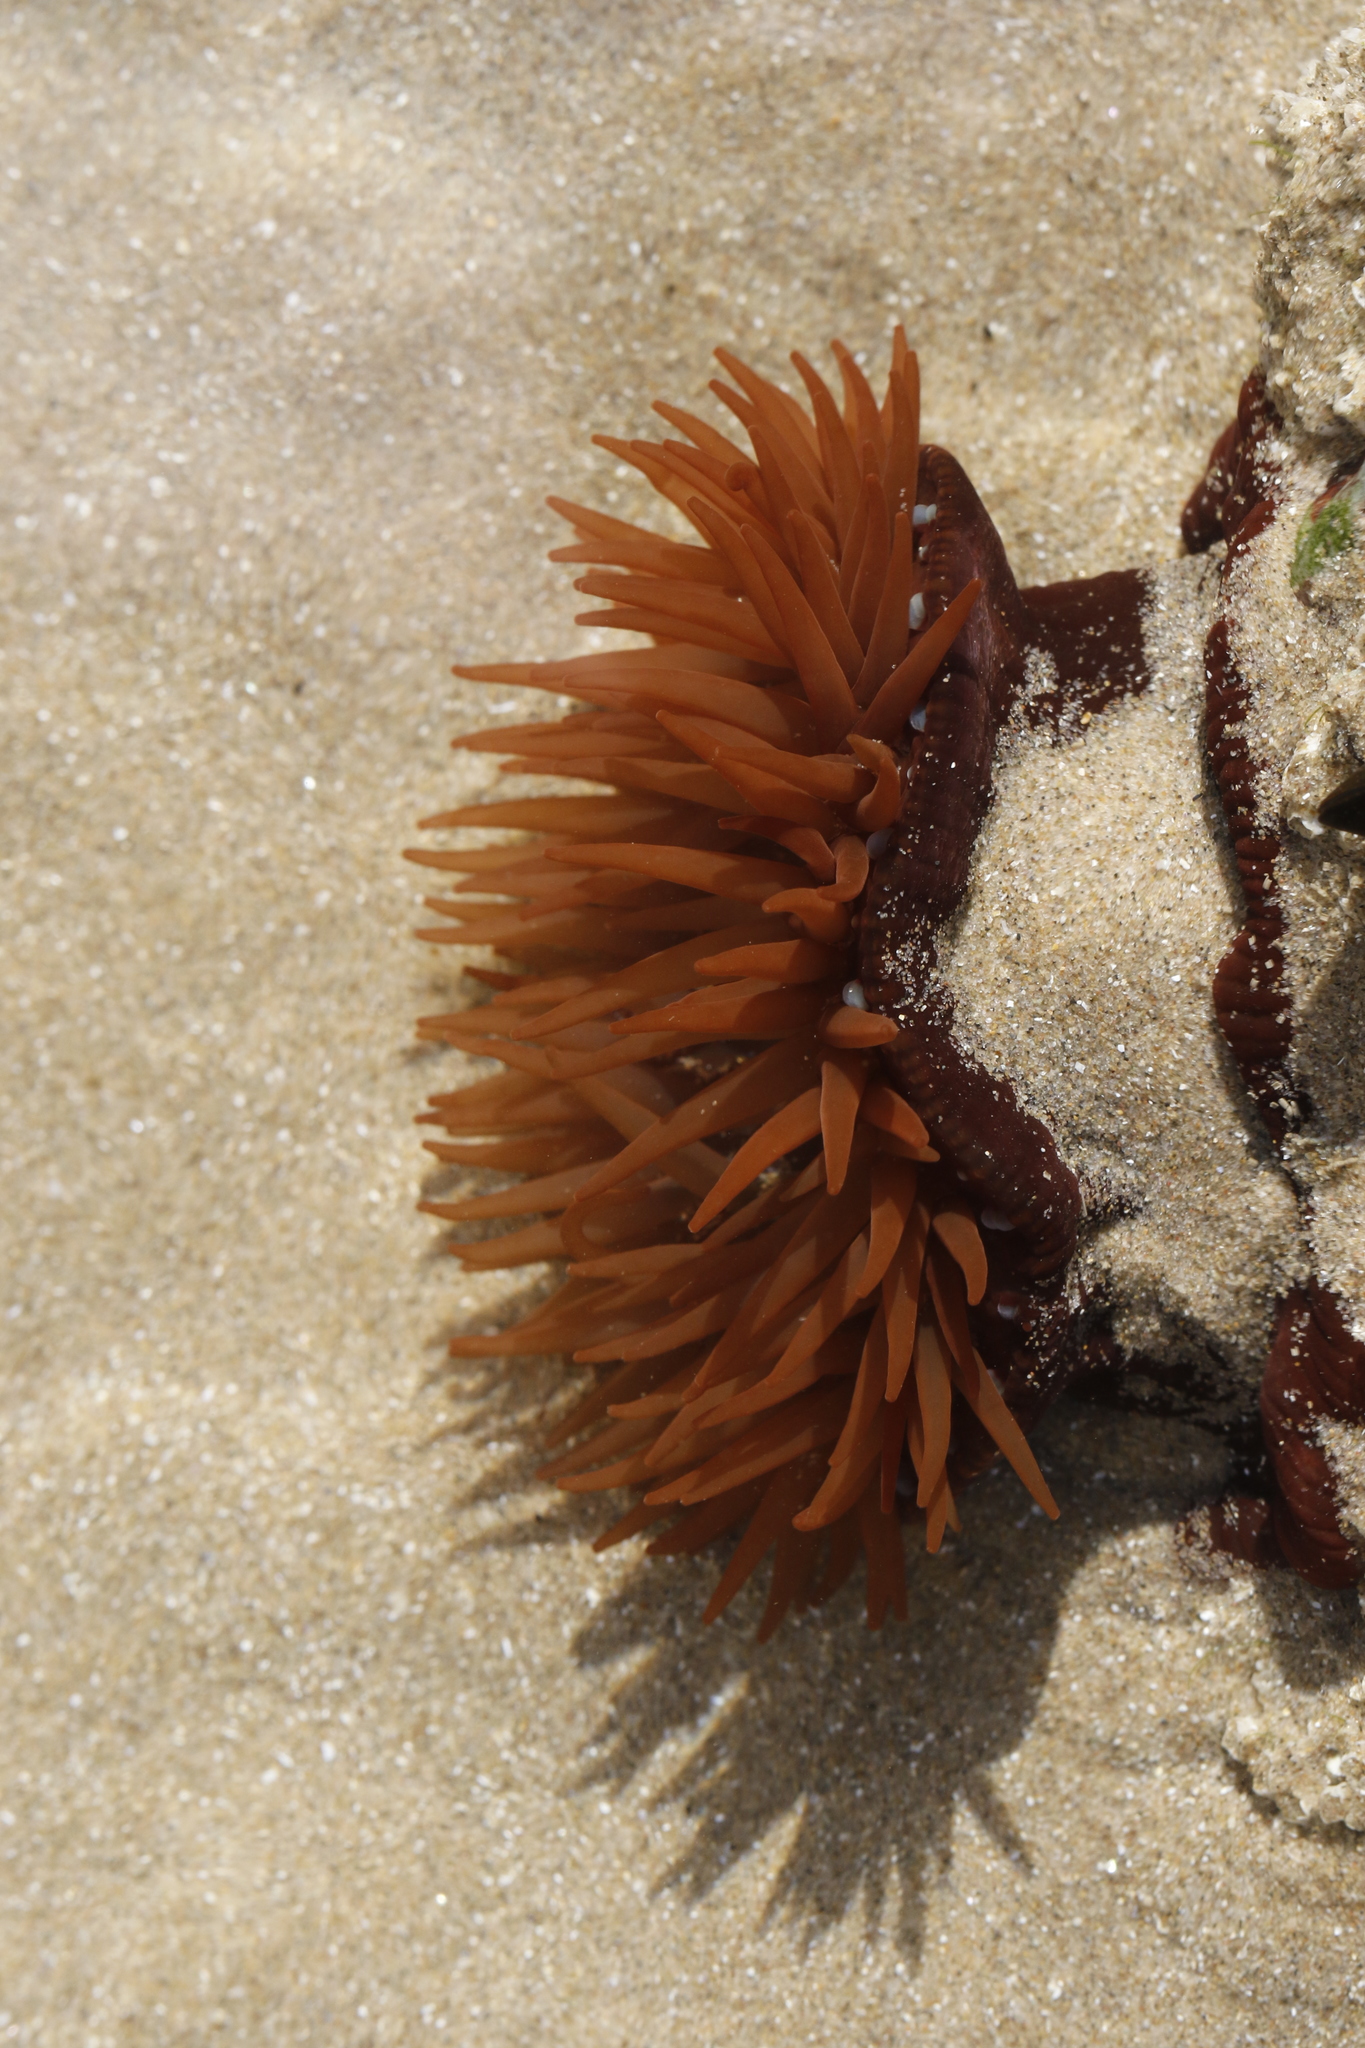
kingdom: Animalia
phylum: Cnidaria
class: Anthozoa
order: Actiniaria
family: Actiniidae
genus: Actinia
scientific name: Actinia equina
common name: Beadlet anemone
